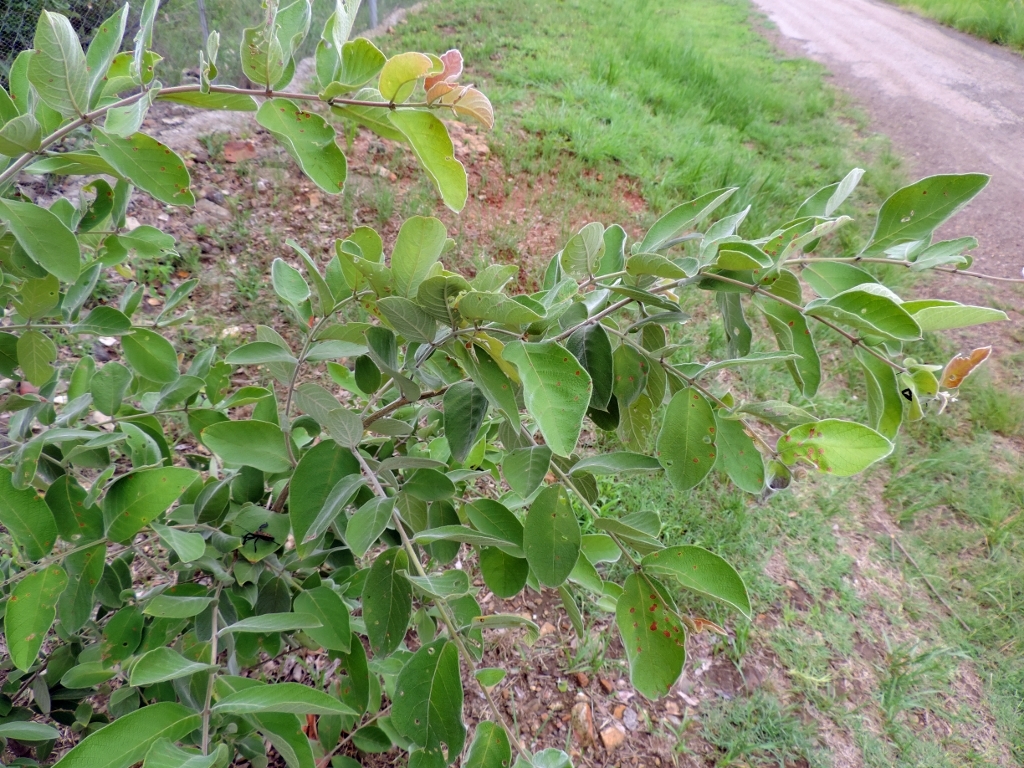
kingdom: Plantae
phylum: Tracheophyta
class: Magnoliopsida
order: Myrtales
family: Combretaceae
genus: Combretum
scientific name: Combretum molle
